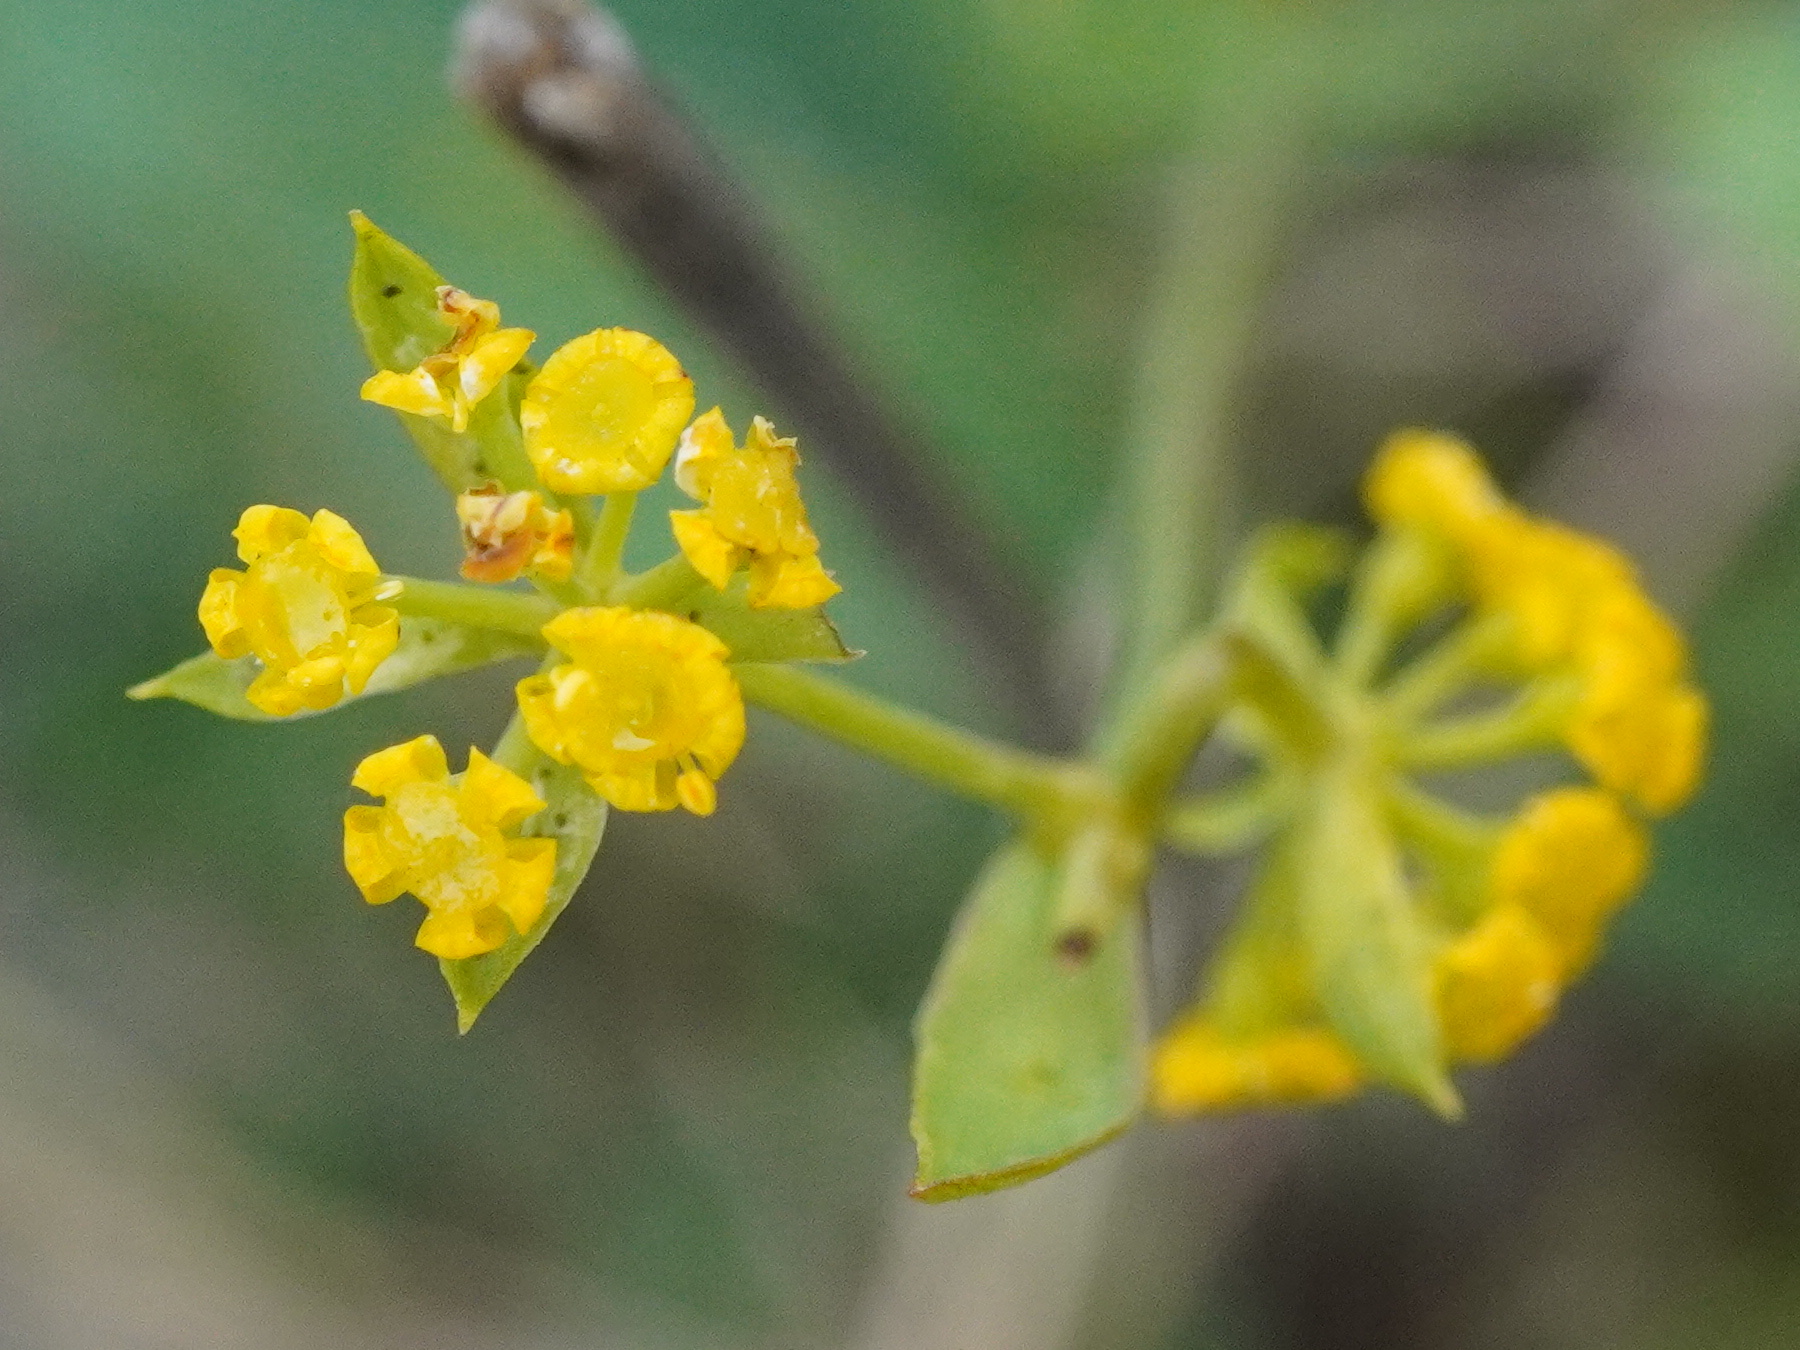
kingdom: Plantae
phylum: Tracheophyta
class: Magnoliopsida
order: Apiales
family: Apiaceae
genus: Bupleurum
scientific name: Bupleurum falcatum
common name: Sickle-leaved hare's-ear
